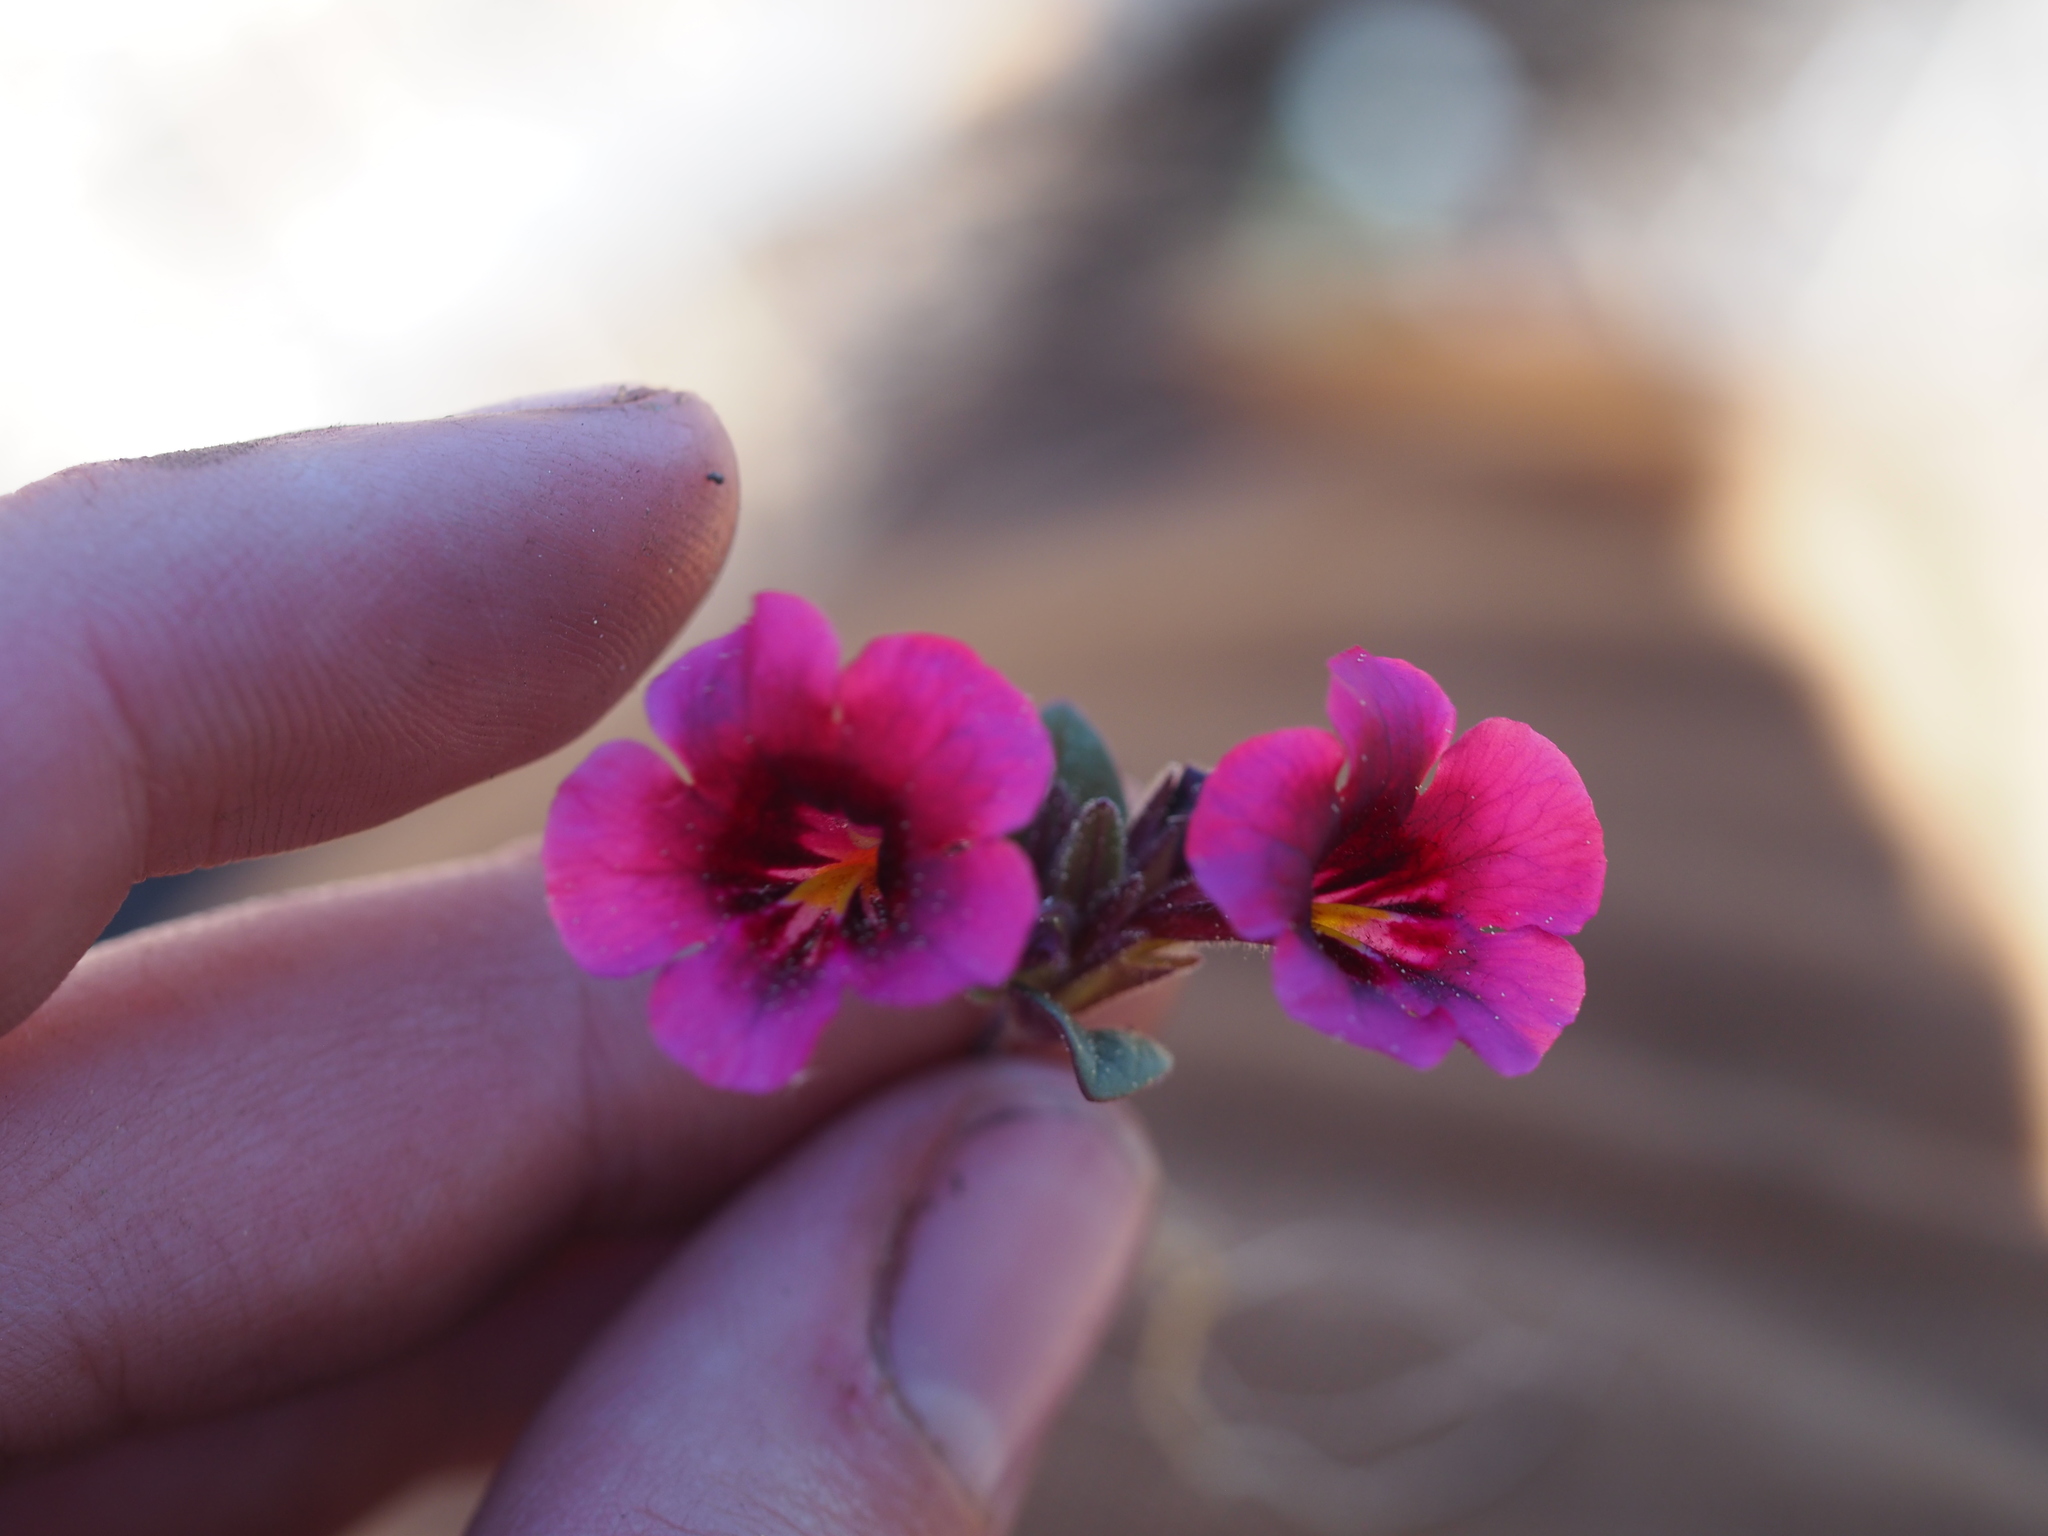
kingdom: Plantae
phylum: Tracheophyta
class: Magnoliopsida
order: Lamiales
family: Phrymaceae
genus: Diplacus
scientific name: Diplacus bicolor
